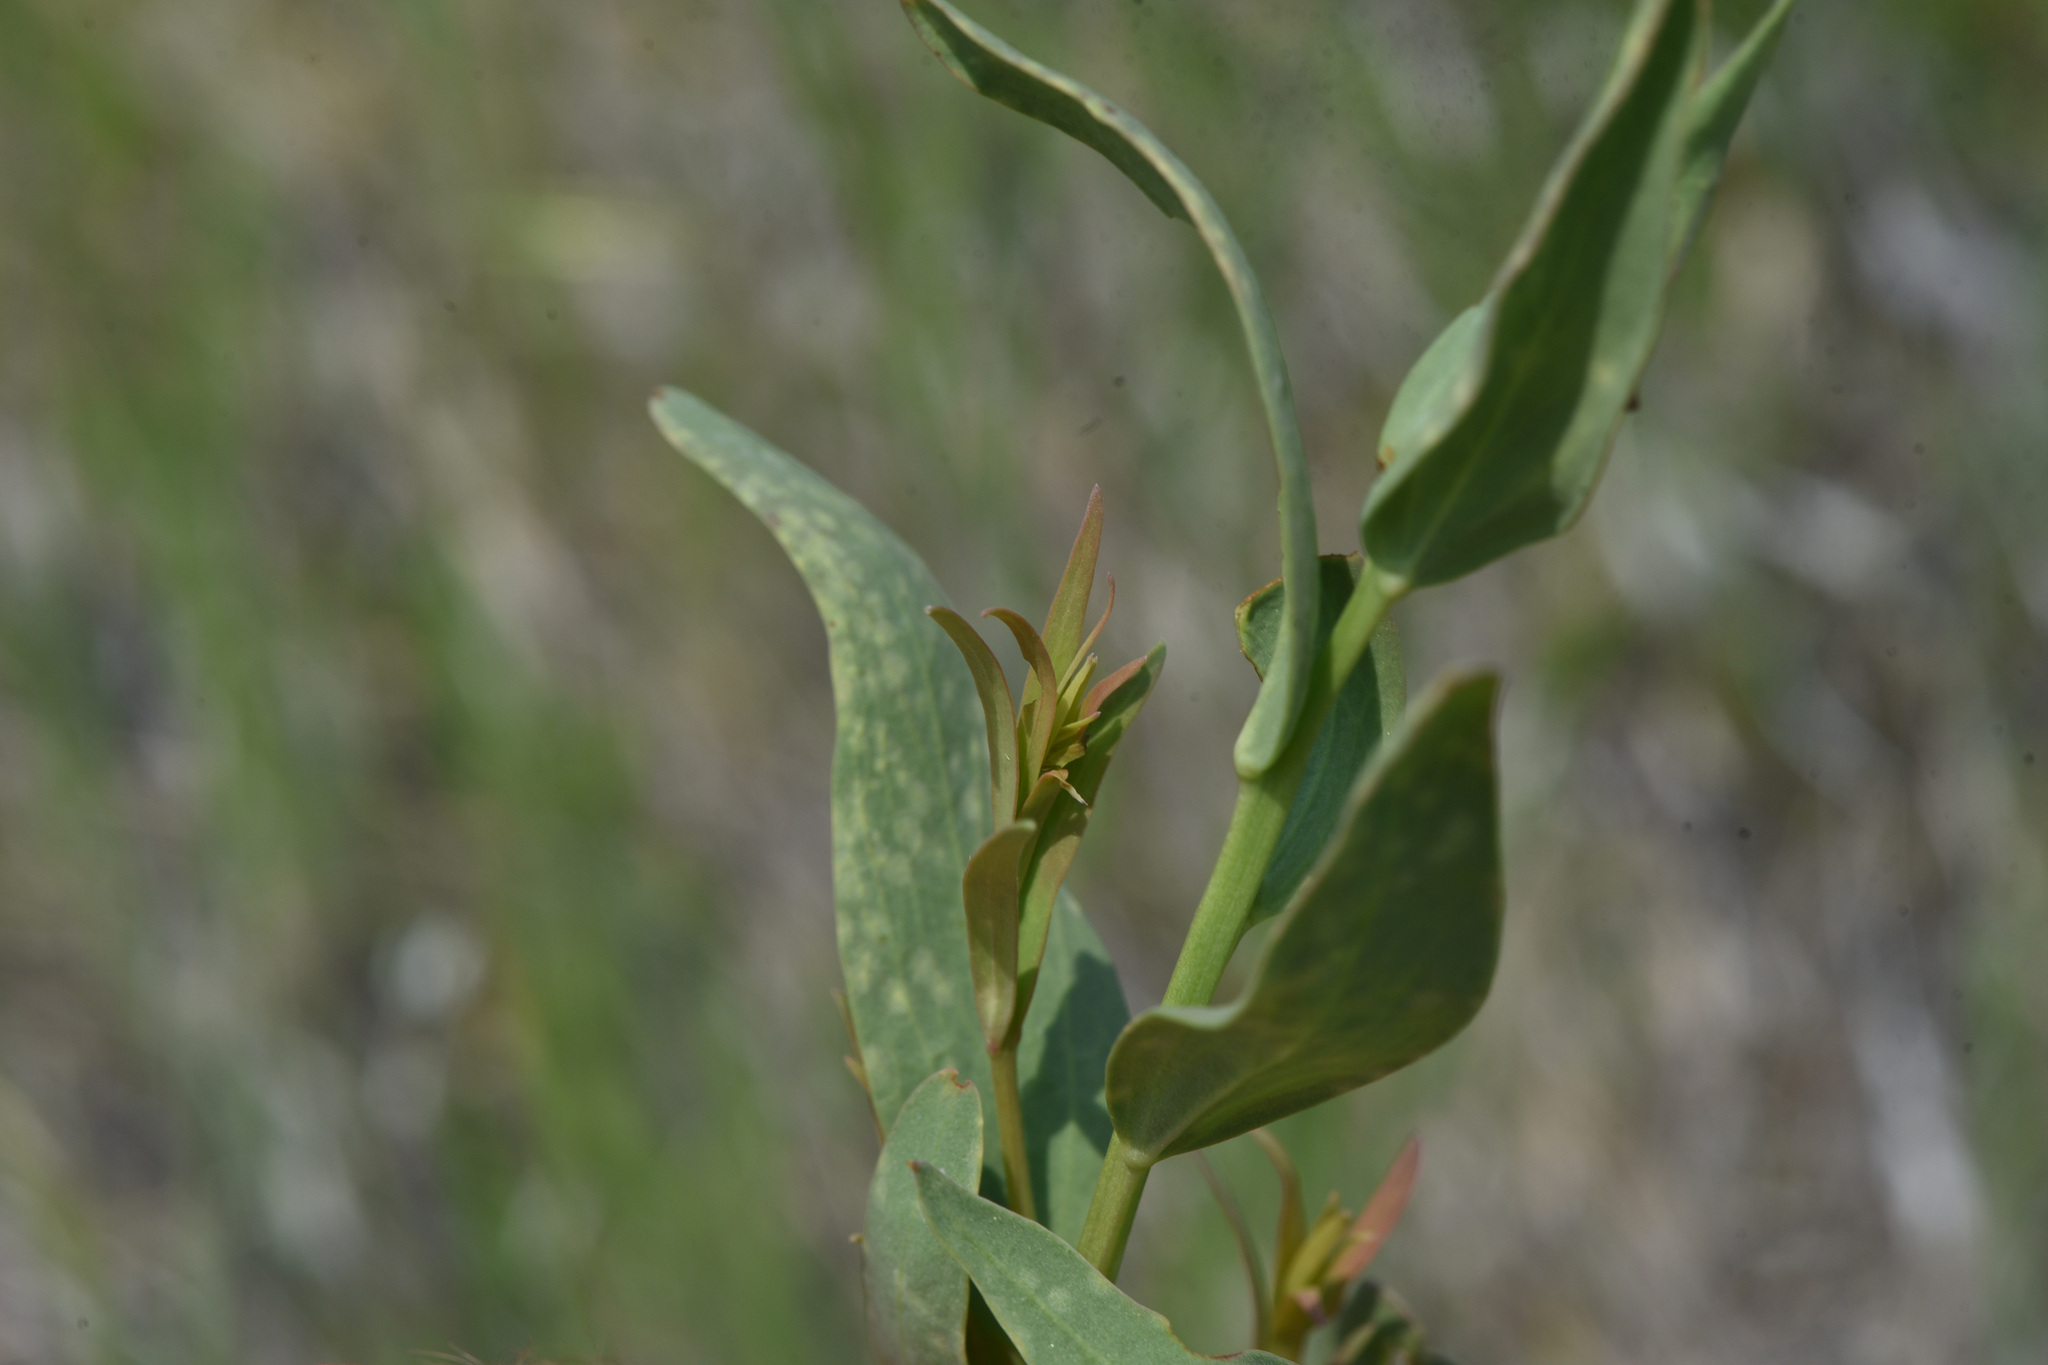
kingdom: Plantae
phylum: Tracheophyta
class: Magnoliopsida
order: Santalales
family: Comandraceae
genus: Comandra
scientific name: Comandra umbellata
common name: Bastard toadflax
